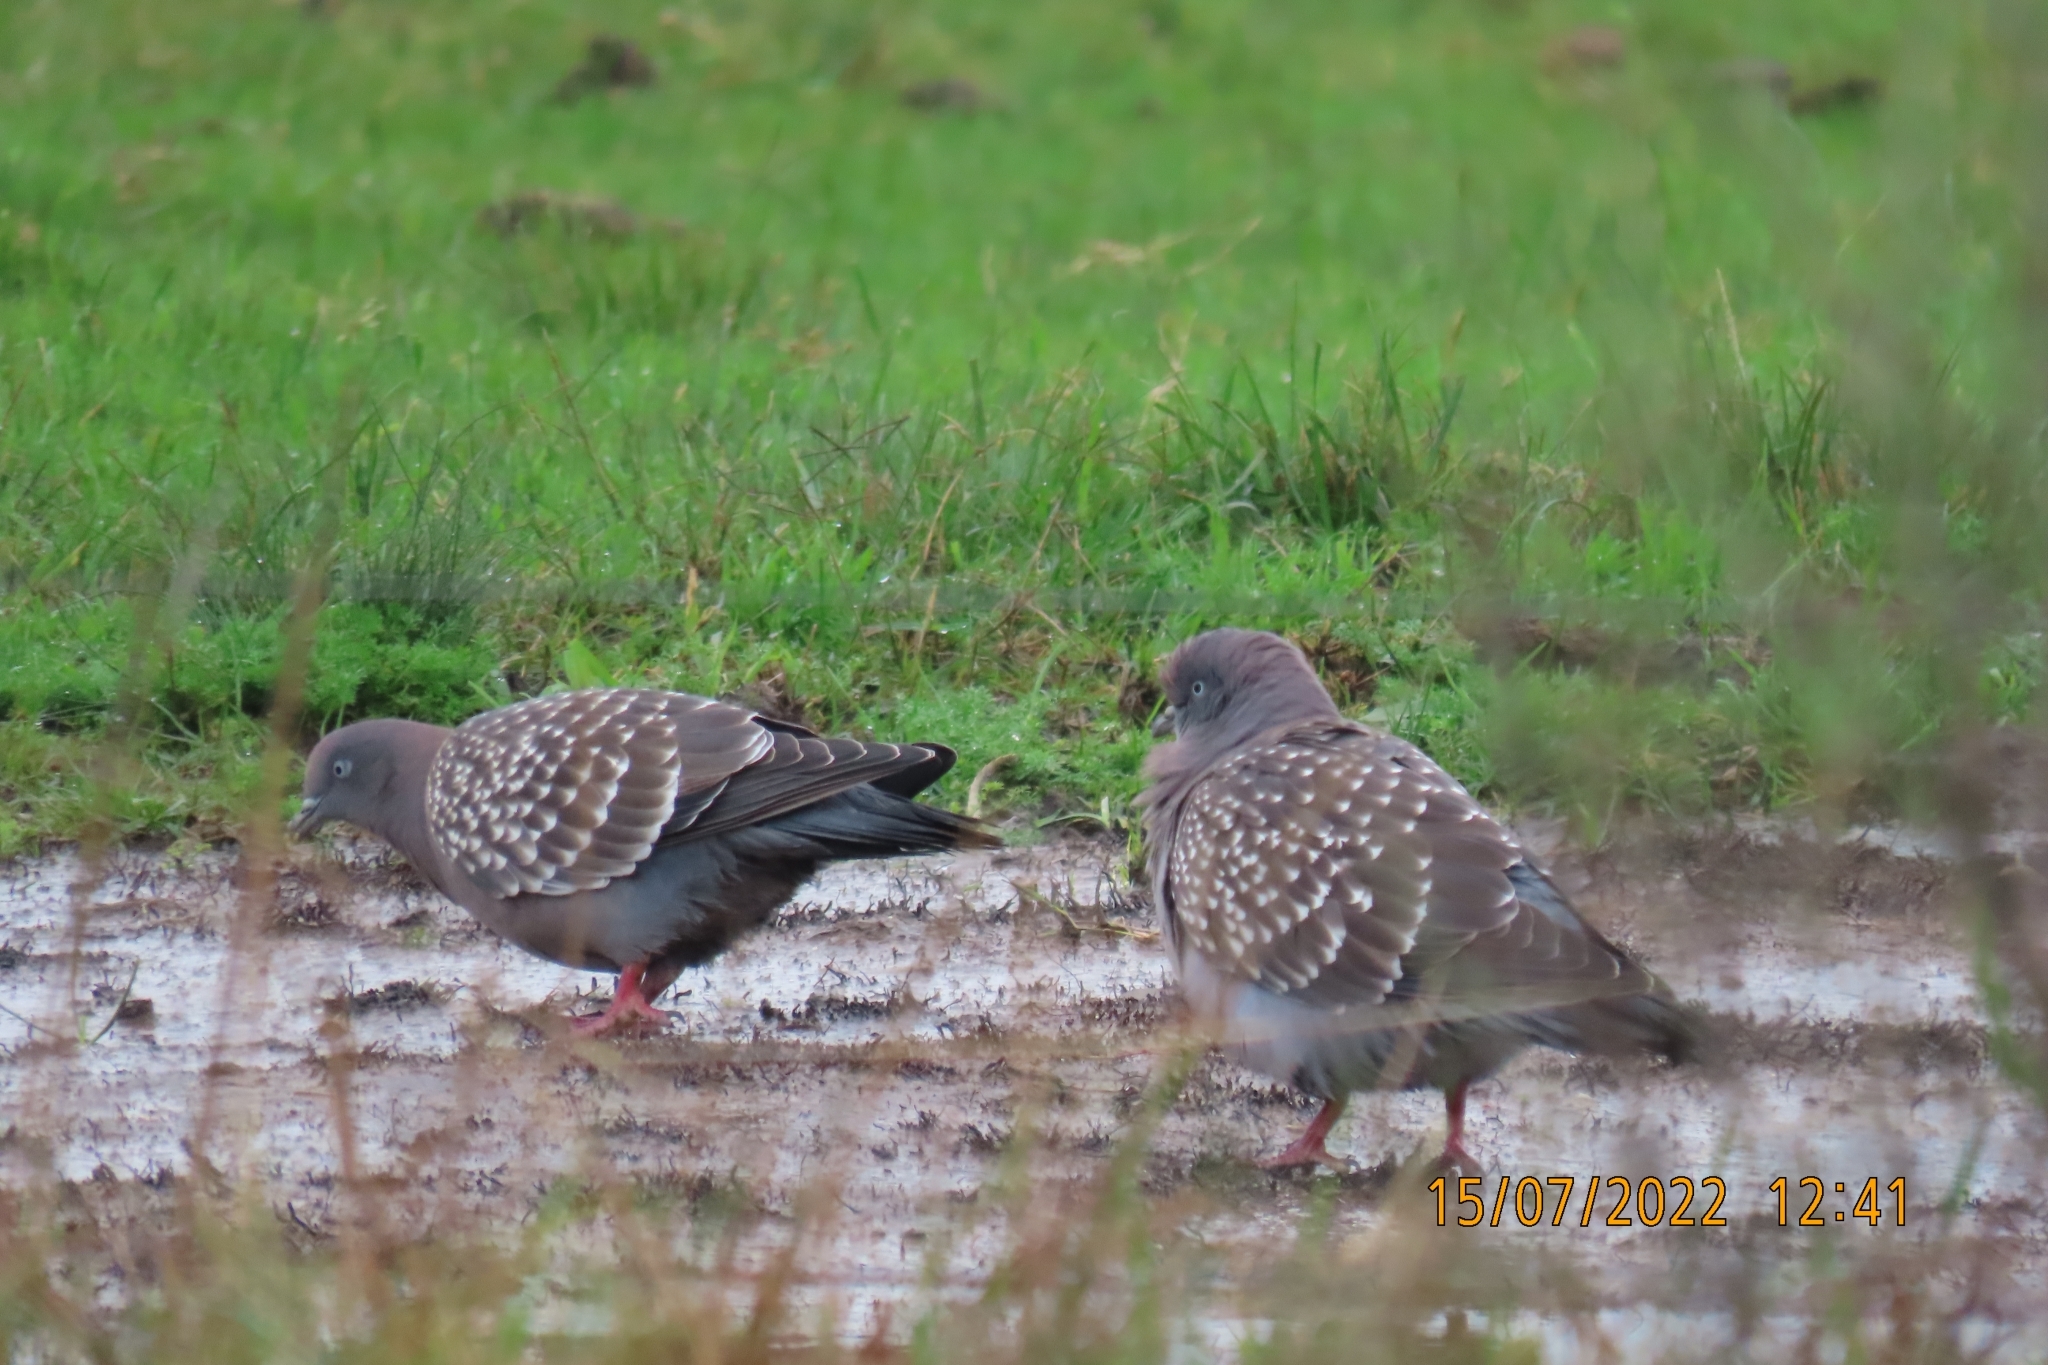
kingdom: Animalia
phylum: Chordata
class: Aves
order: Columbiformes
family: Columbidae
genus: Patagioenas
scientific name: Patagioenas maculosa
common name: Spot-winged pigeon
